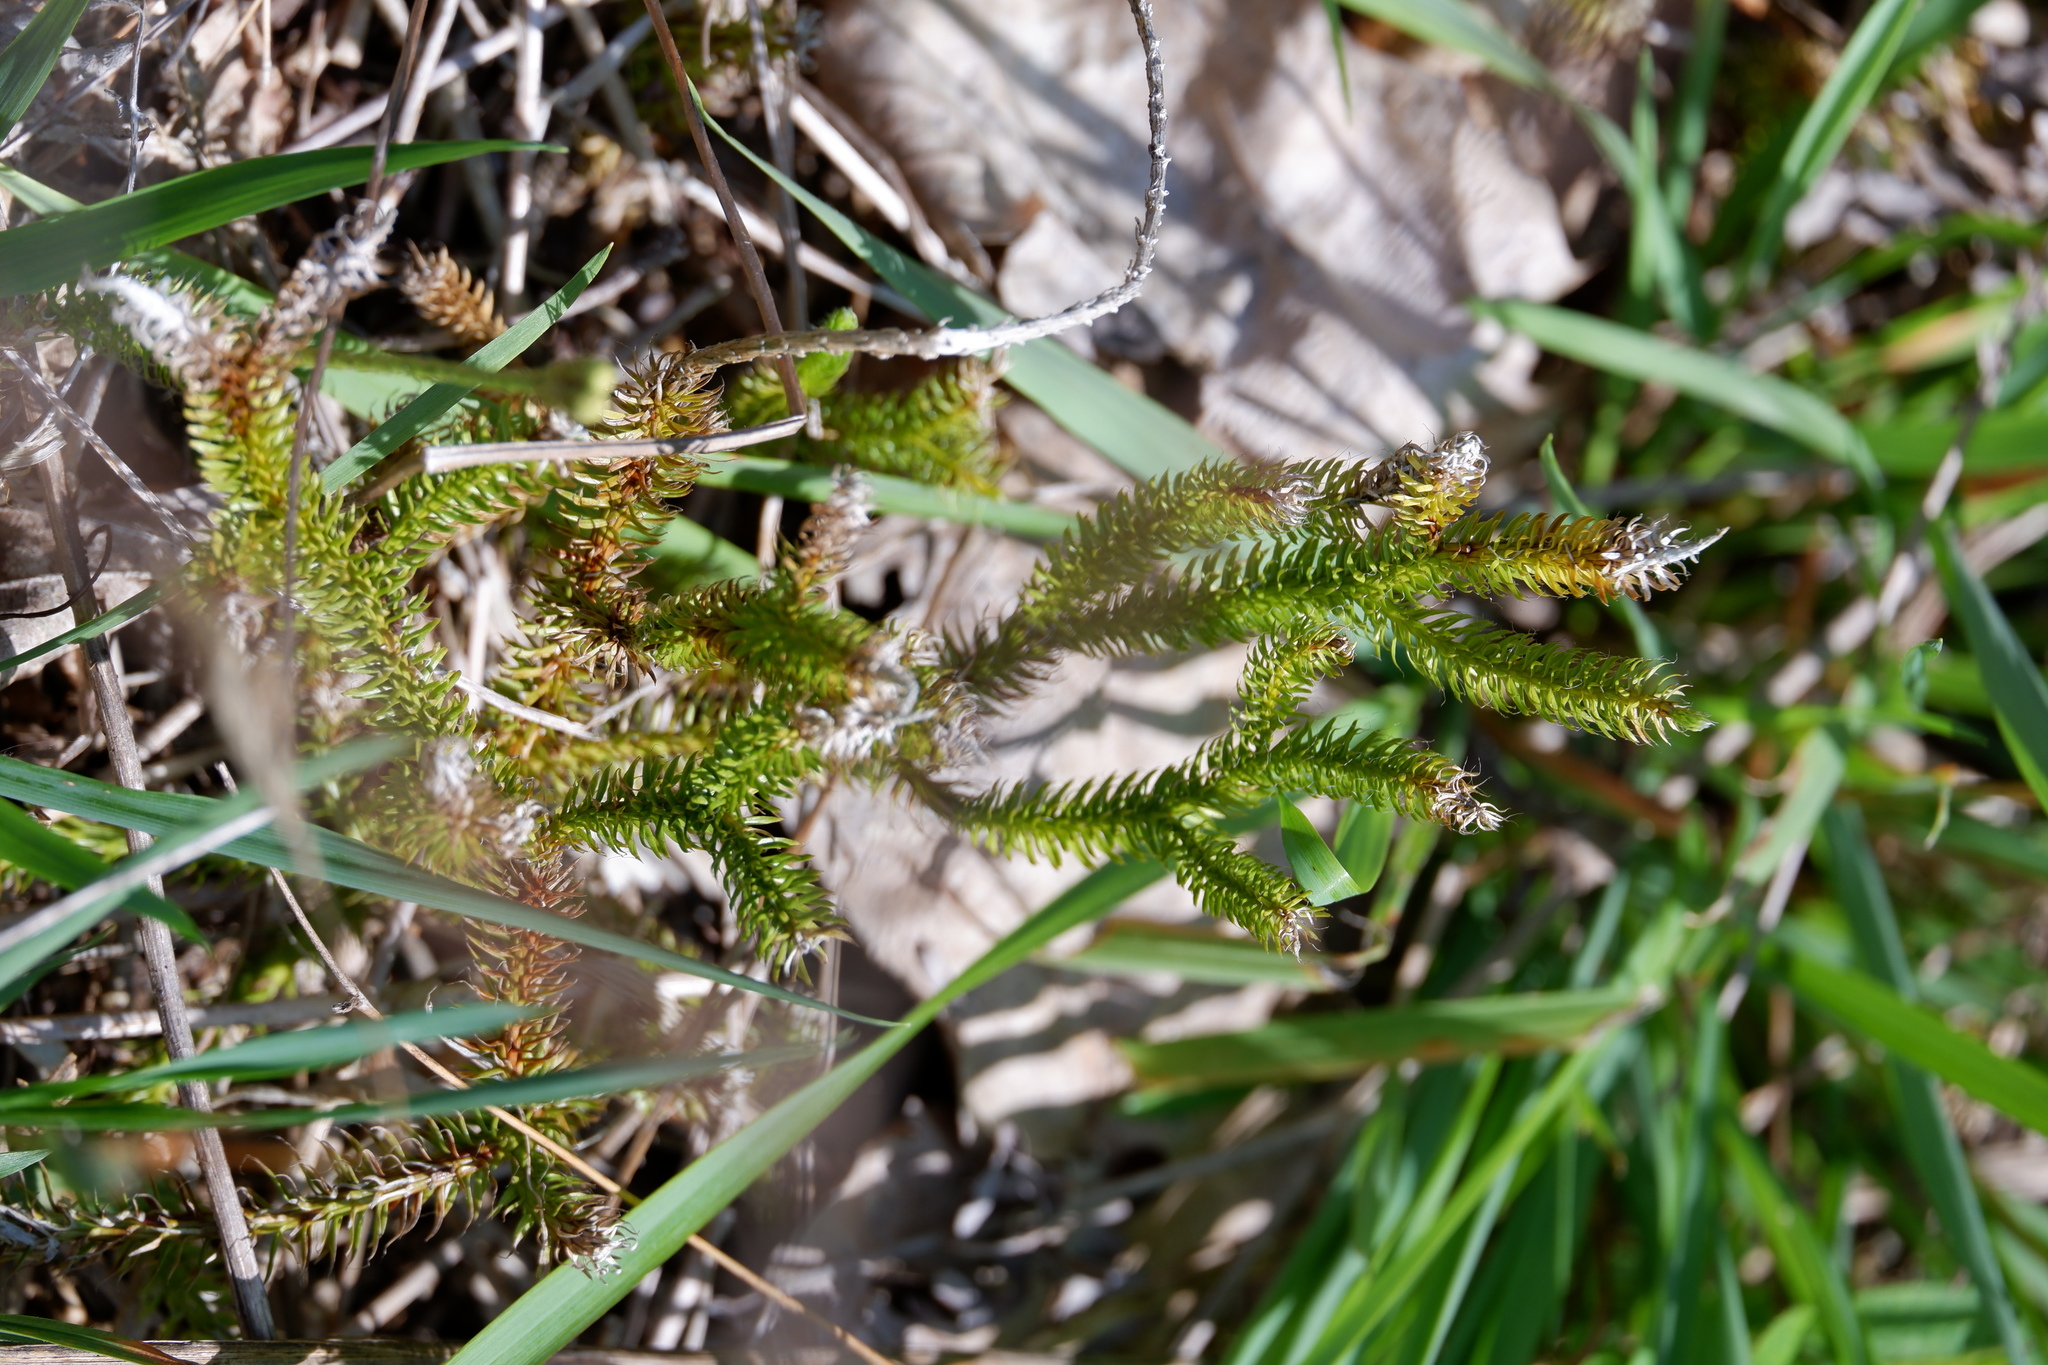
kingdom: Plantae
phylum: Tracheophyta
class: Lycopodiopsida
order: Lycopodiales
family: Lycopodiaceae
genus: Lycopodium
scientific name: Lycopodium clavatum
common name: Stag's-horn clubmoss
